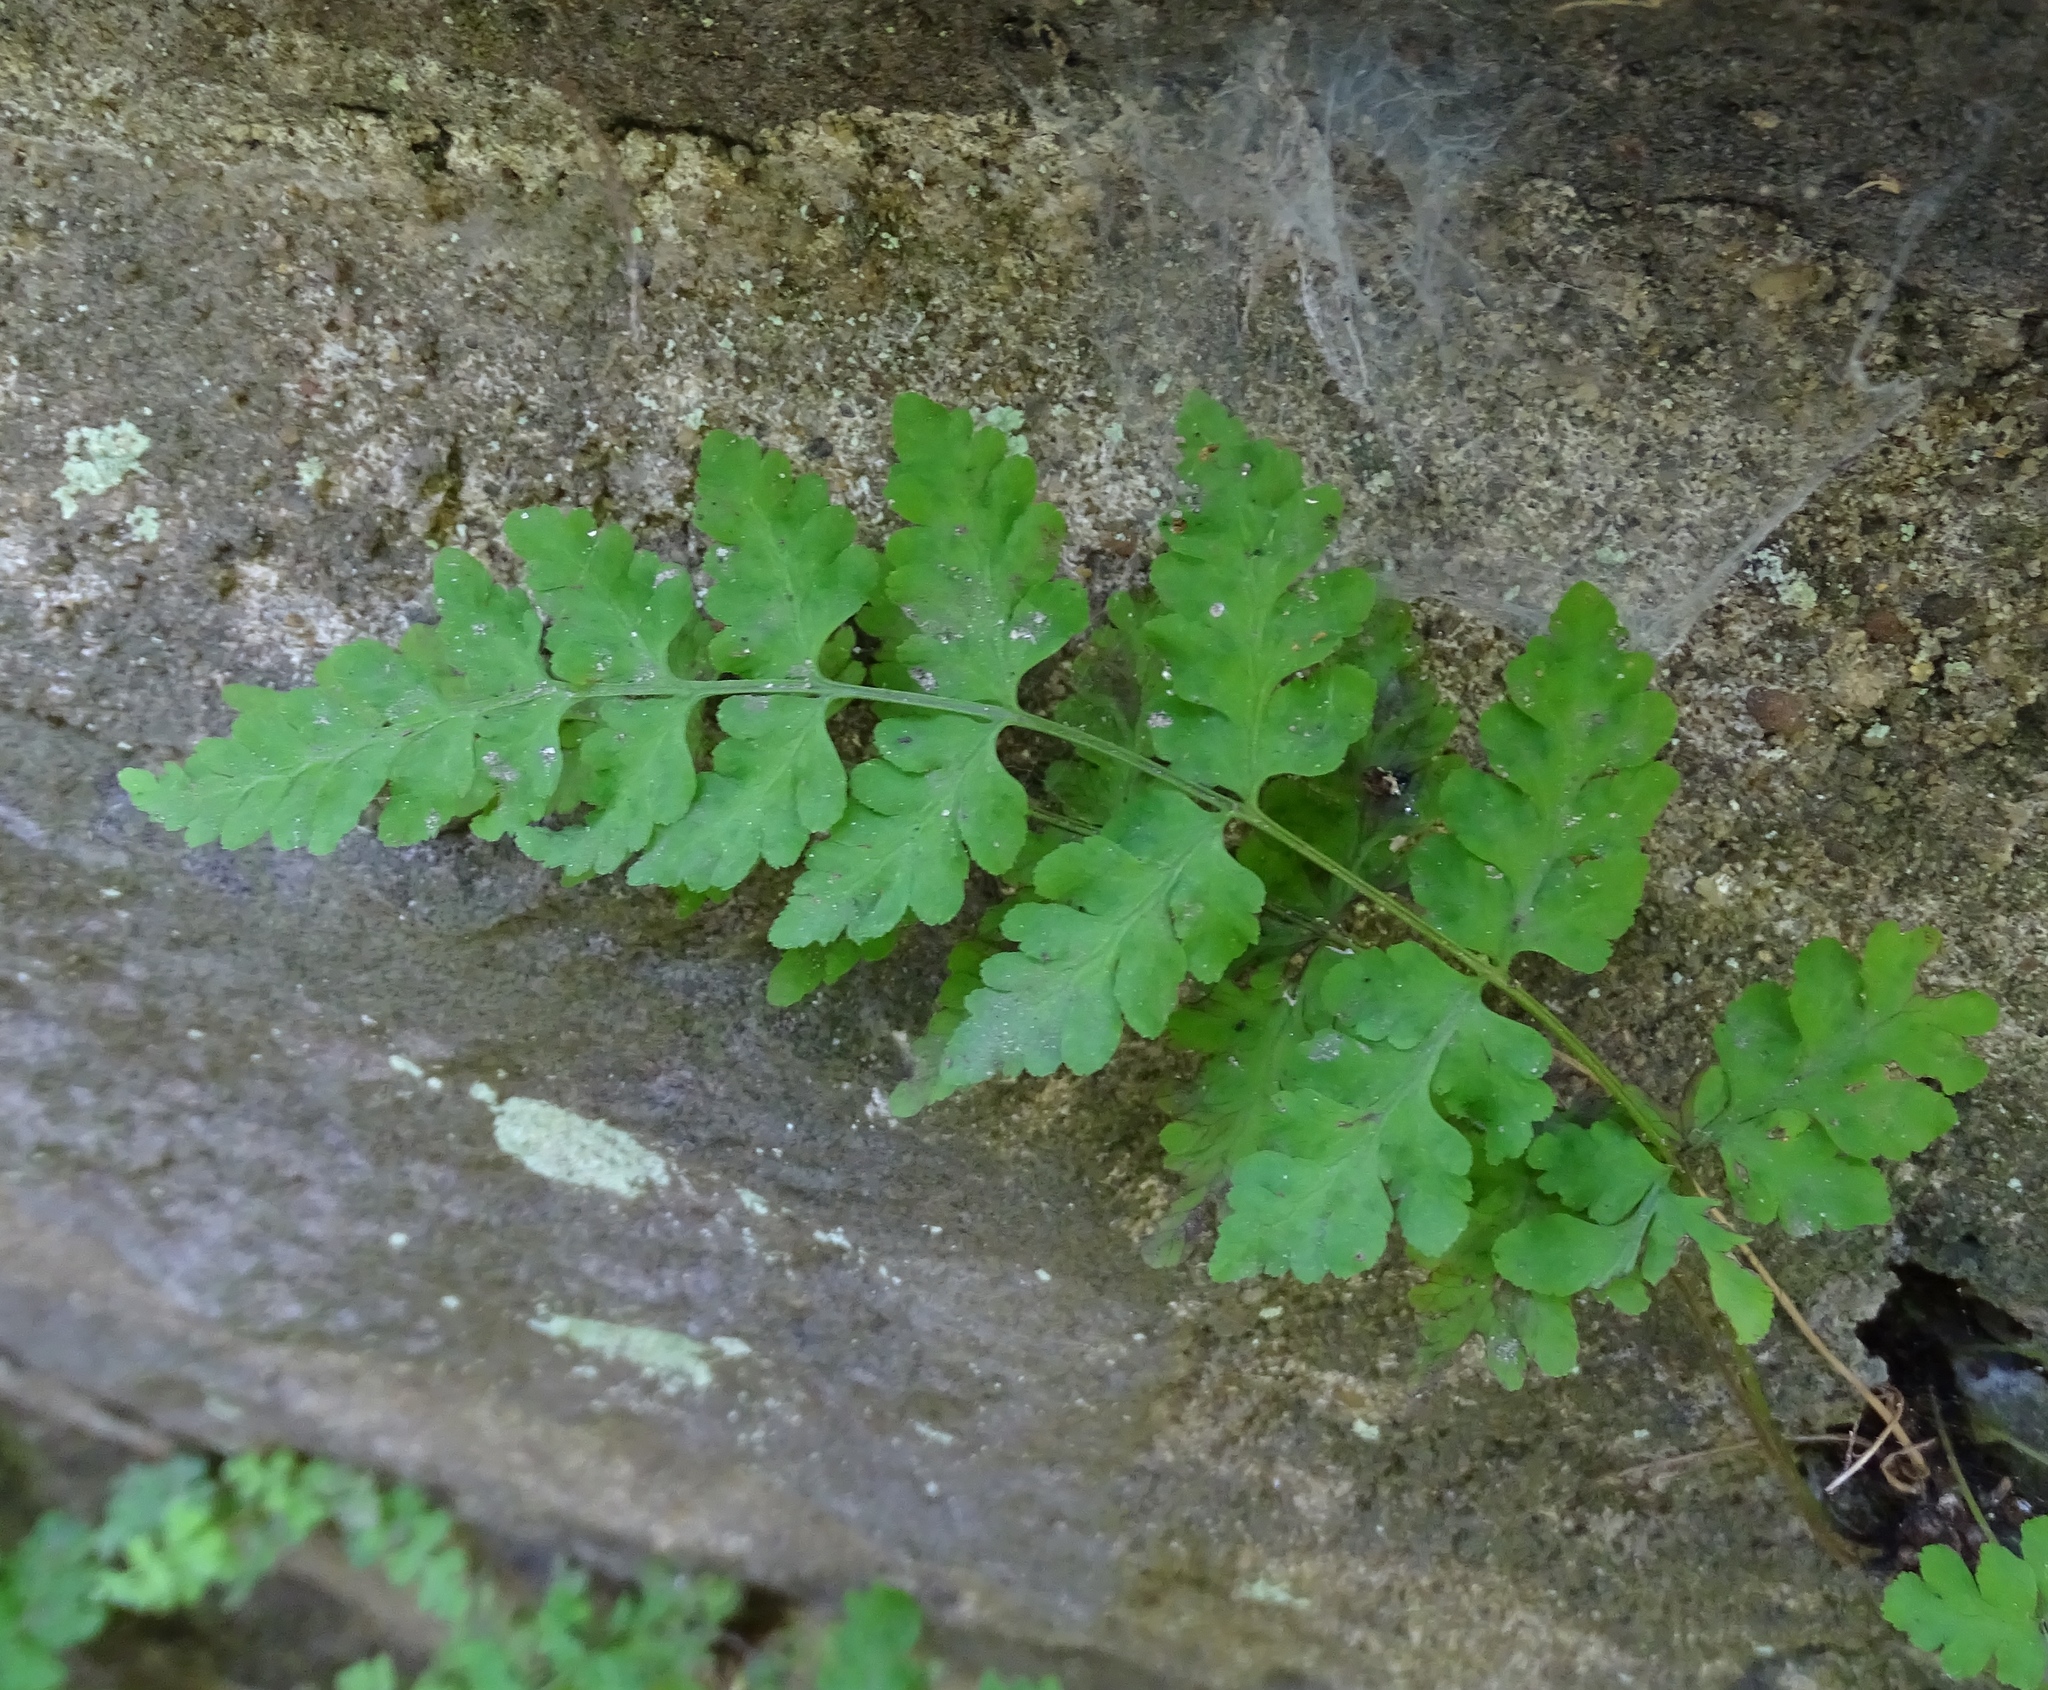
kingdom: Plantae
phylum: Tracheophyta
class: Polypodiopsida
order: Polypodiales
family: Woodsiaceae
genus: Physematium
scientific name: Physematium obtusum
